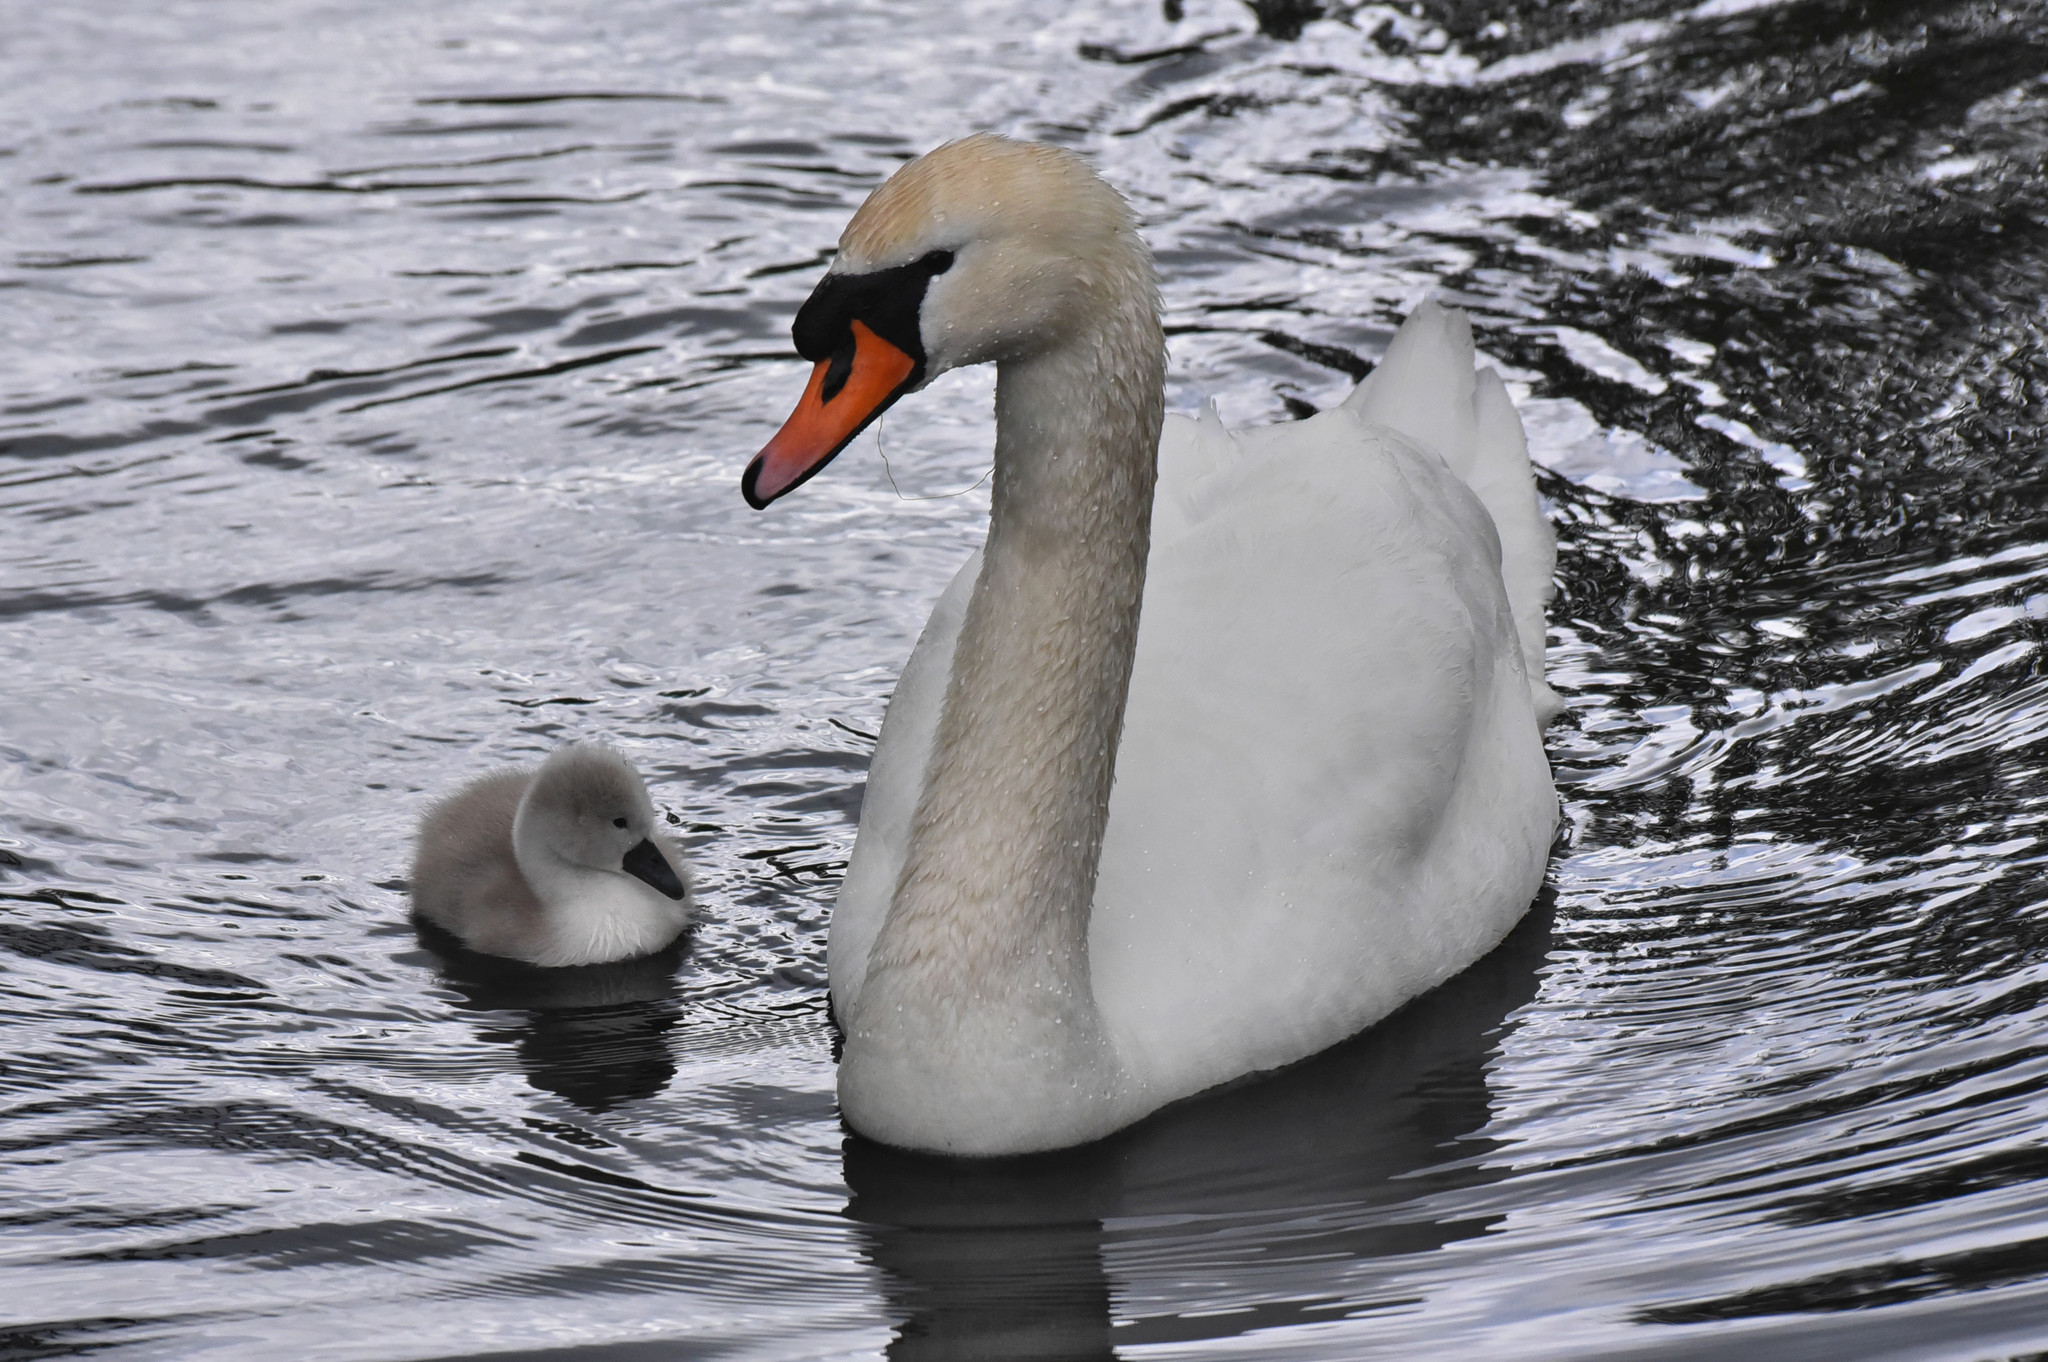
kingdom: Animalia
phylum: Chordata
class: Aves
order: Anseriformes
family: Anatidae
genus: Cygnus
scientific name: Cygnus olor
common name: Mute swan
